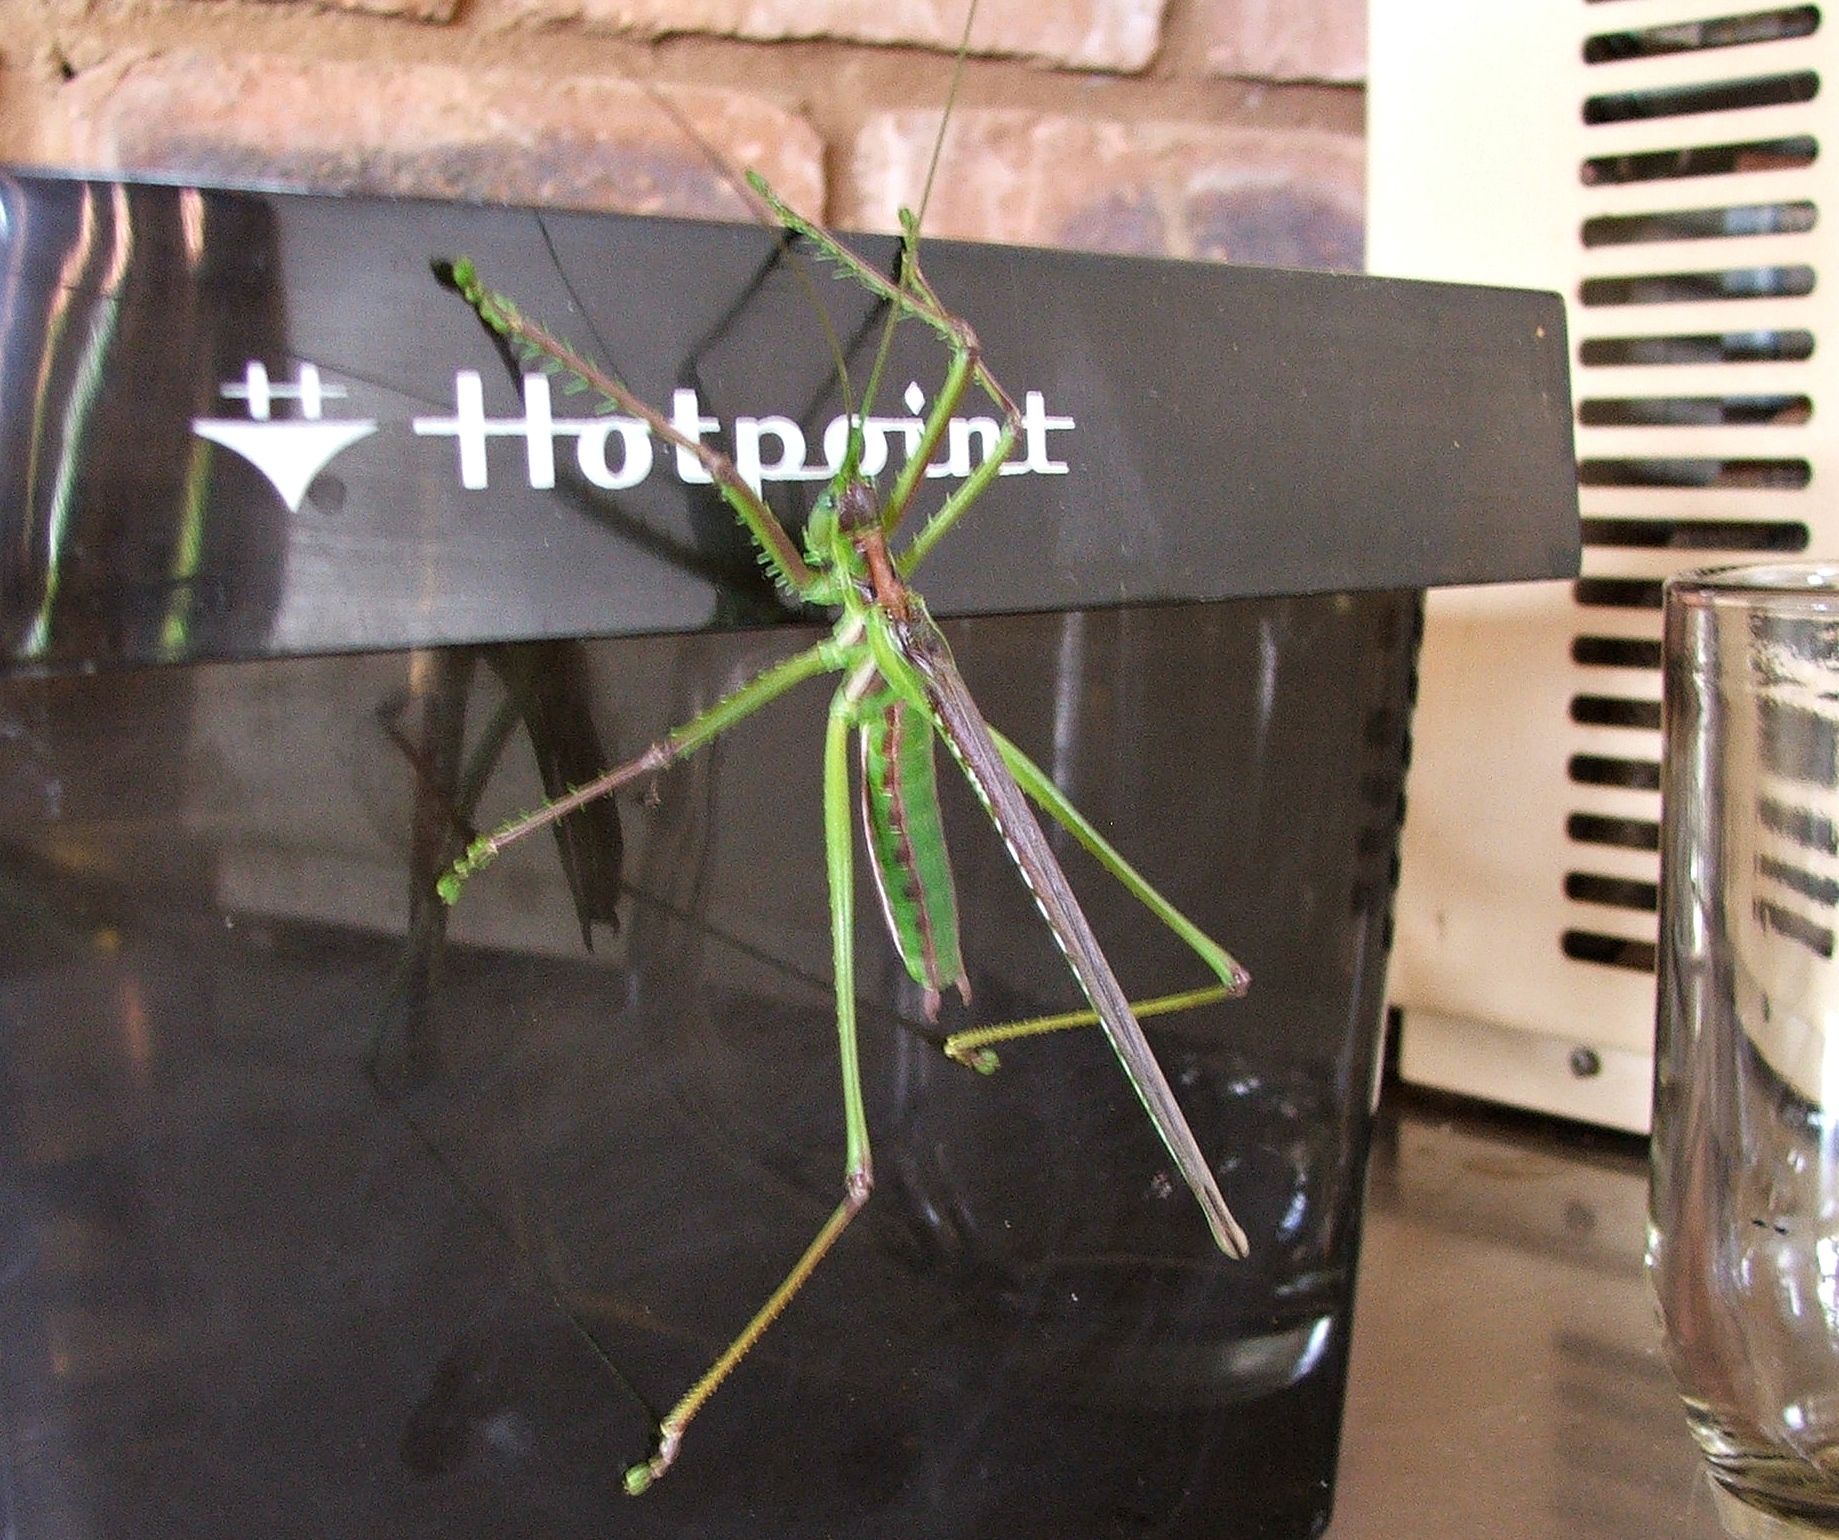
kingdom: Animalia
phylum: Arthropoda
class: Insecta
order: Orthoptera
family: Tettigoniidae
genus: Clonia
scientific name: Clonia wahlbergi
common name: Wahlberg's clonia
